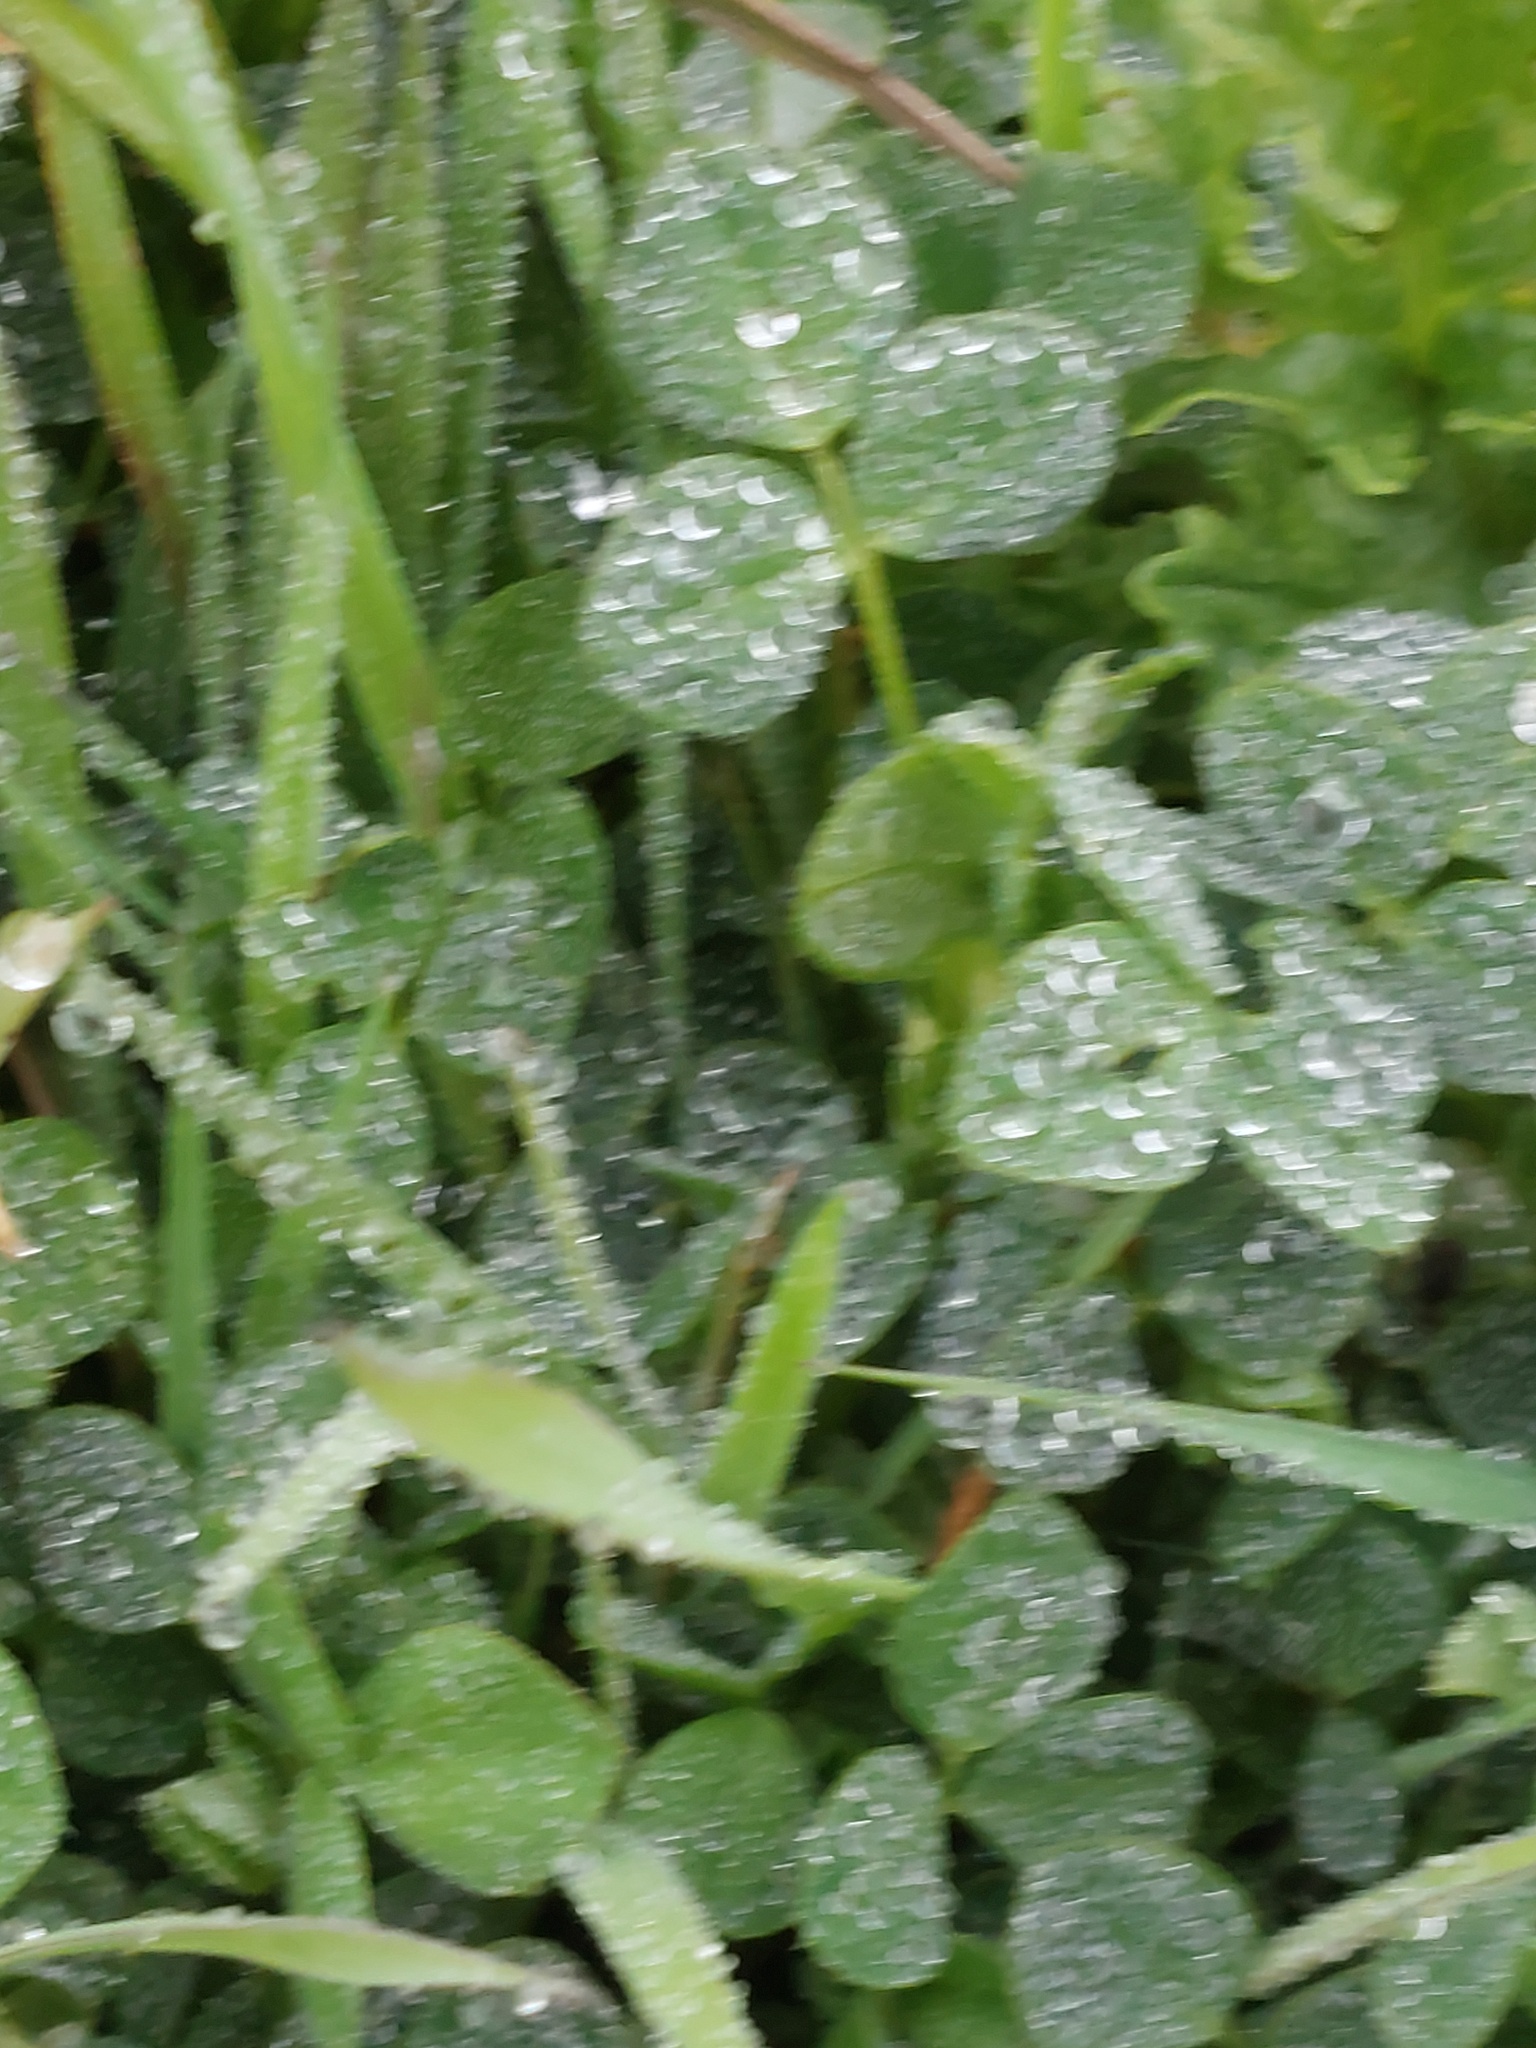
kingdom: Plantae
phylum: Tracheophyta
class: Magnoliopsida
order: Fabales
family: Fabaceae
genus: Medicago
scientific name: Medicago lupulina
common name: Black medick
